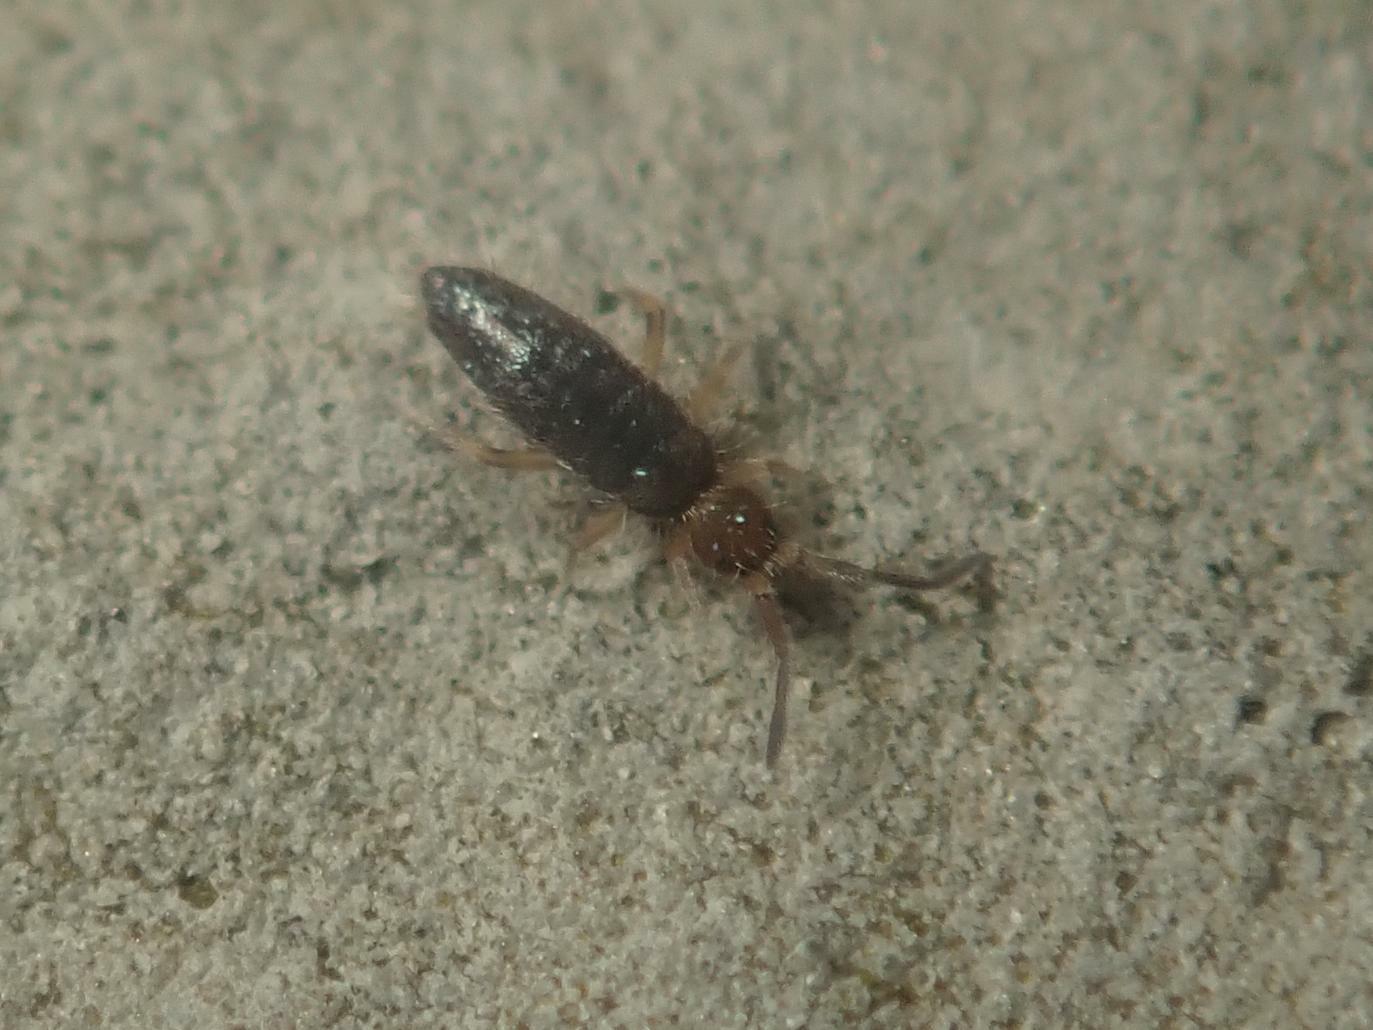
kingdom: Animalia
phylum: Arthropoda
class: Collembola
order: Entomobryomorpha
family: Entomobryidae
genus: Willowsia
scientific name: Willowsia buski
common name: Damp grain springtail
